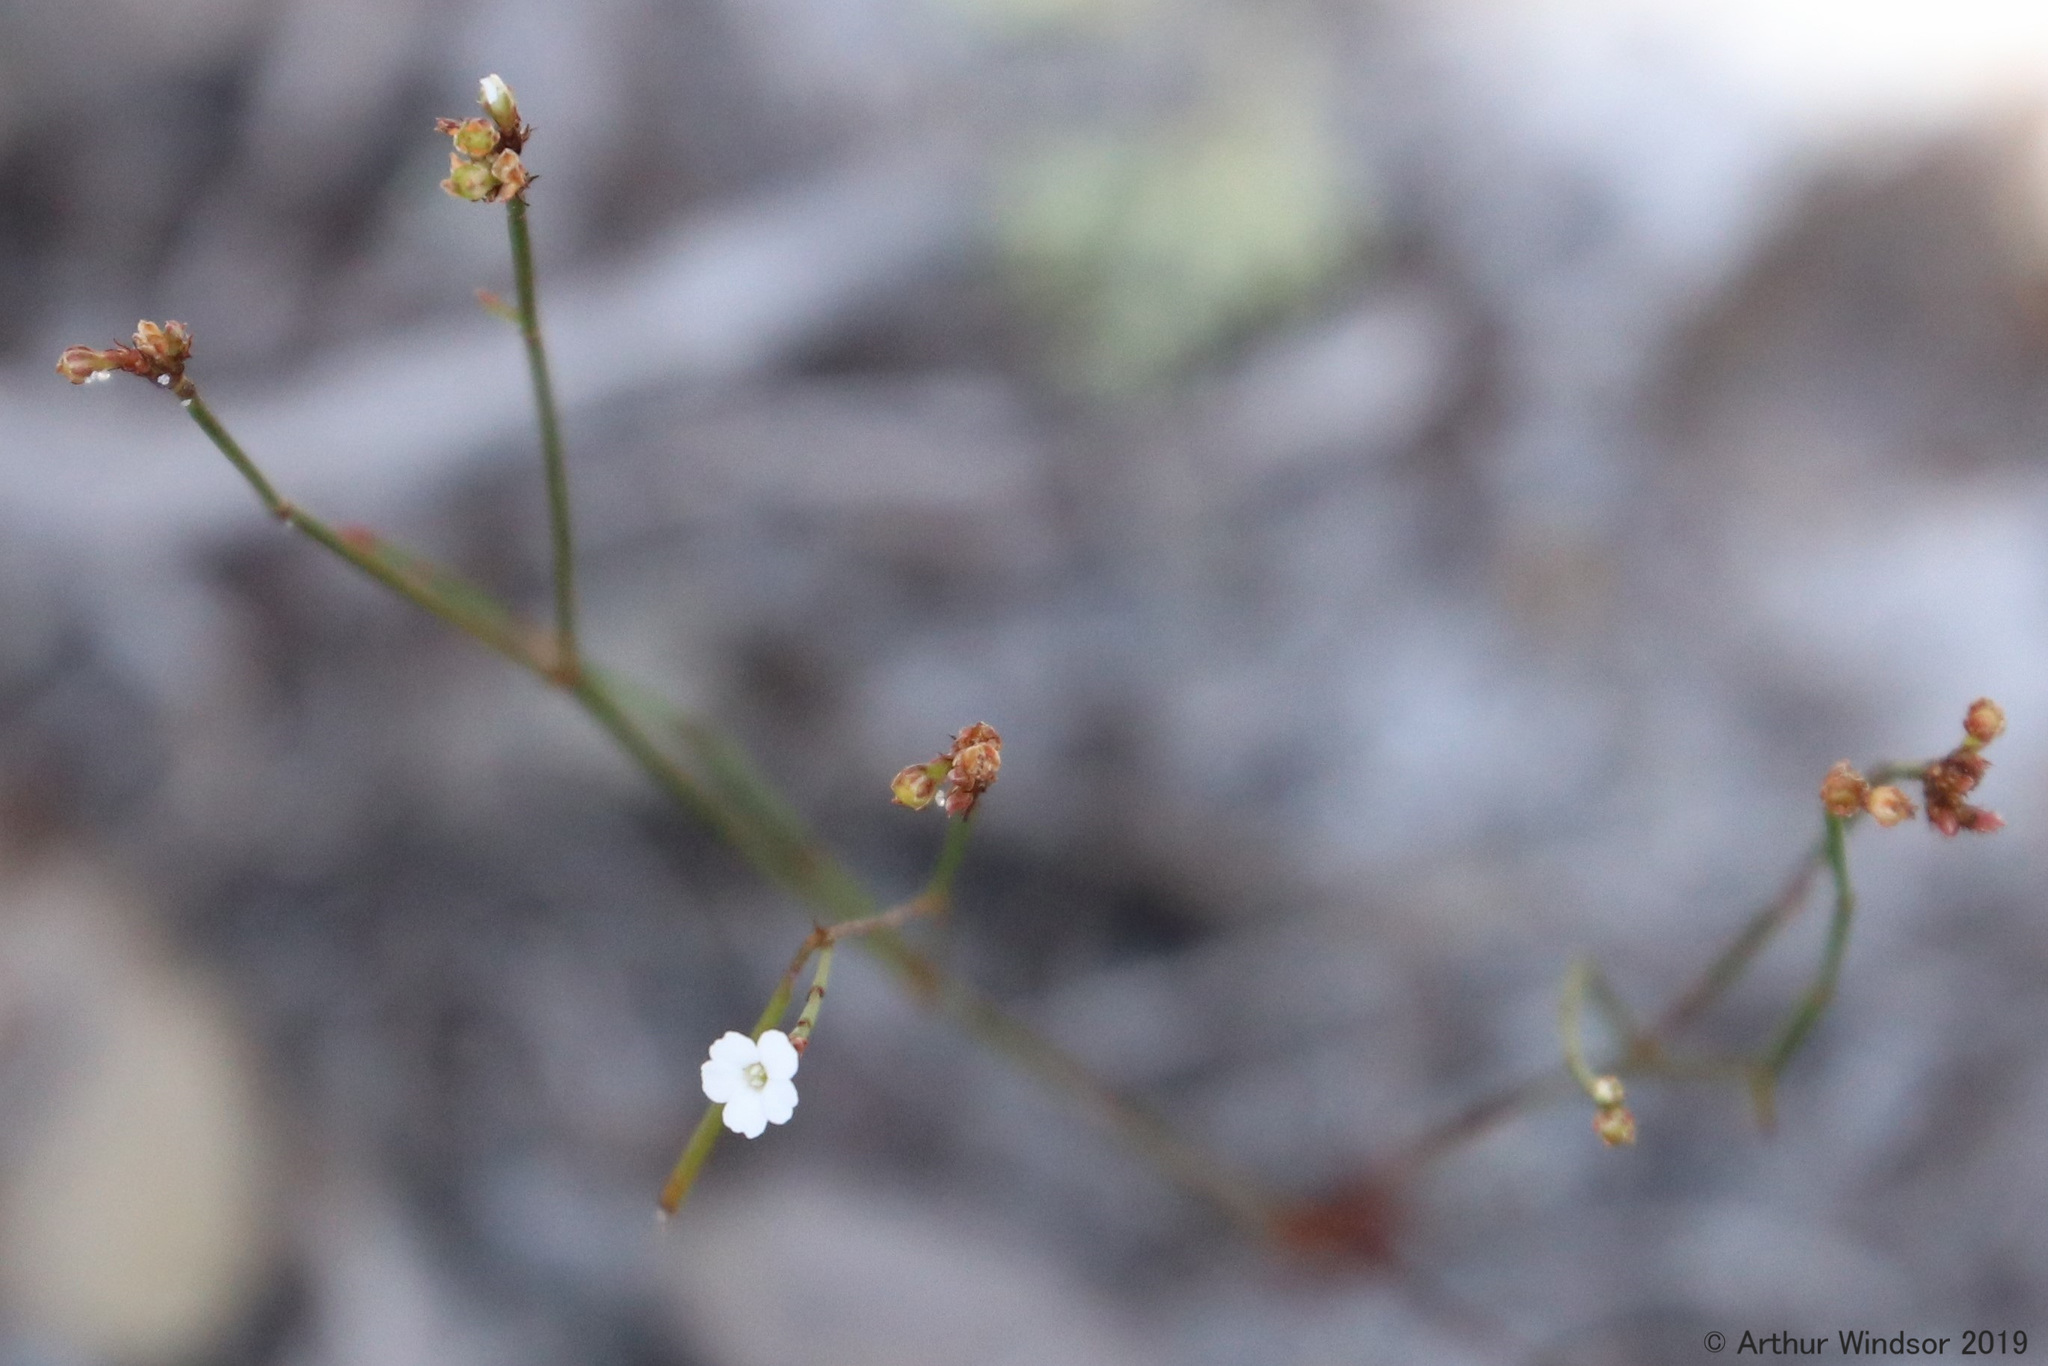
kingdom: Plantae
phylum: Tracheophyta
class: Magnoliopsida
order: Caryophyllales
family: Caryophyllaceae
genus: Stipulicida
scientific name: Stipulicida setacea
